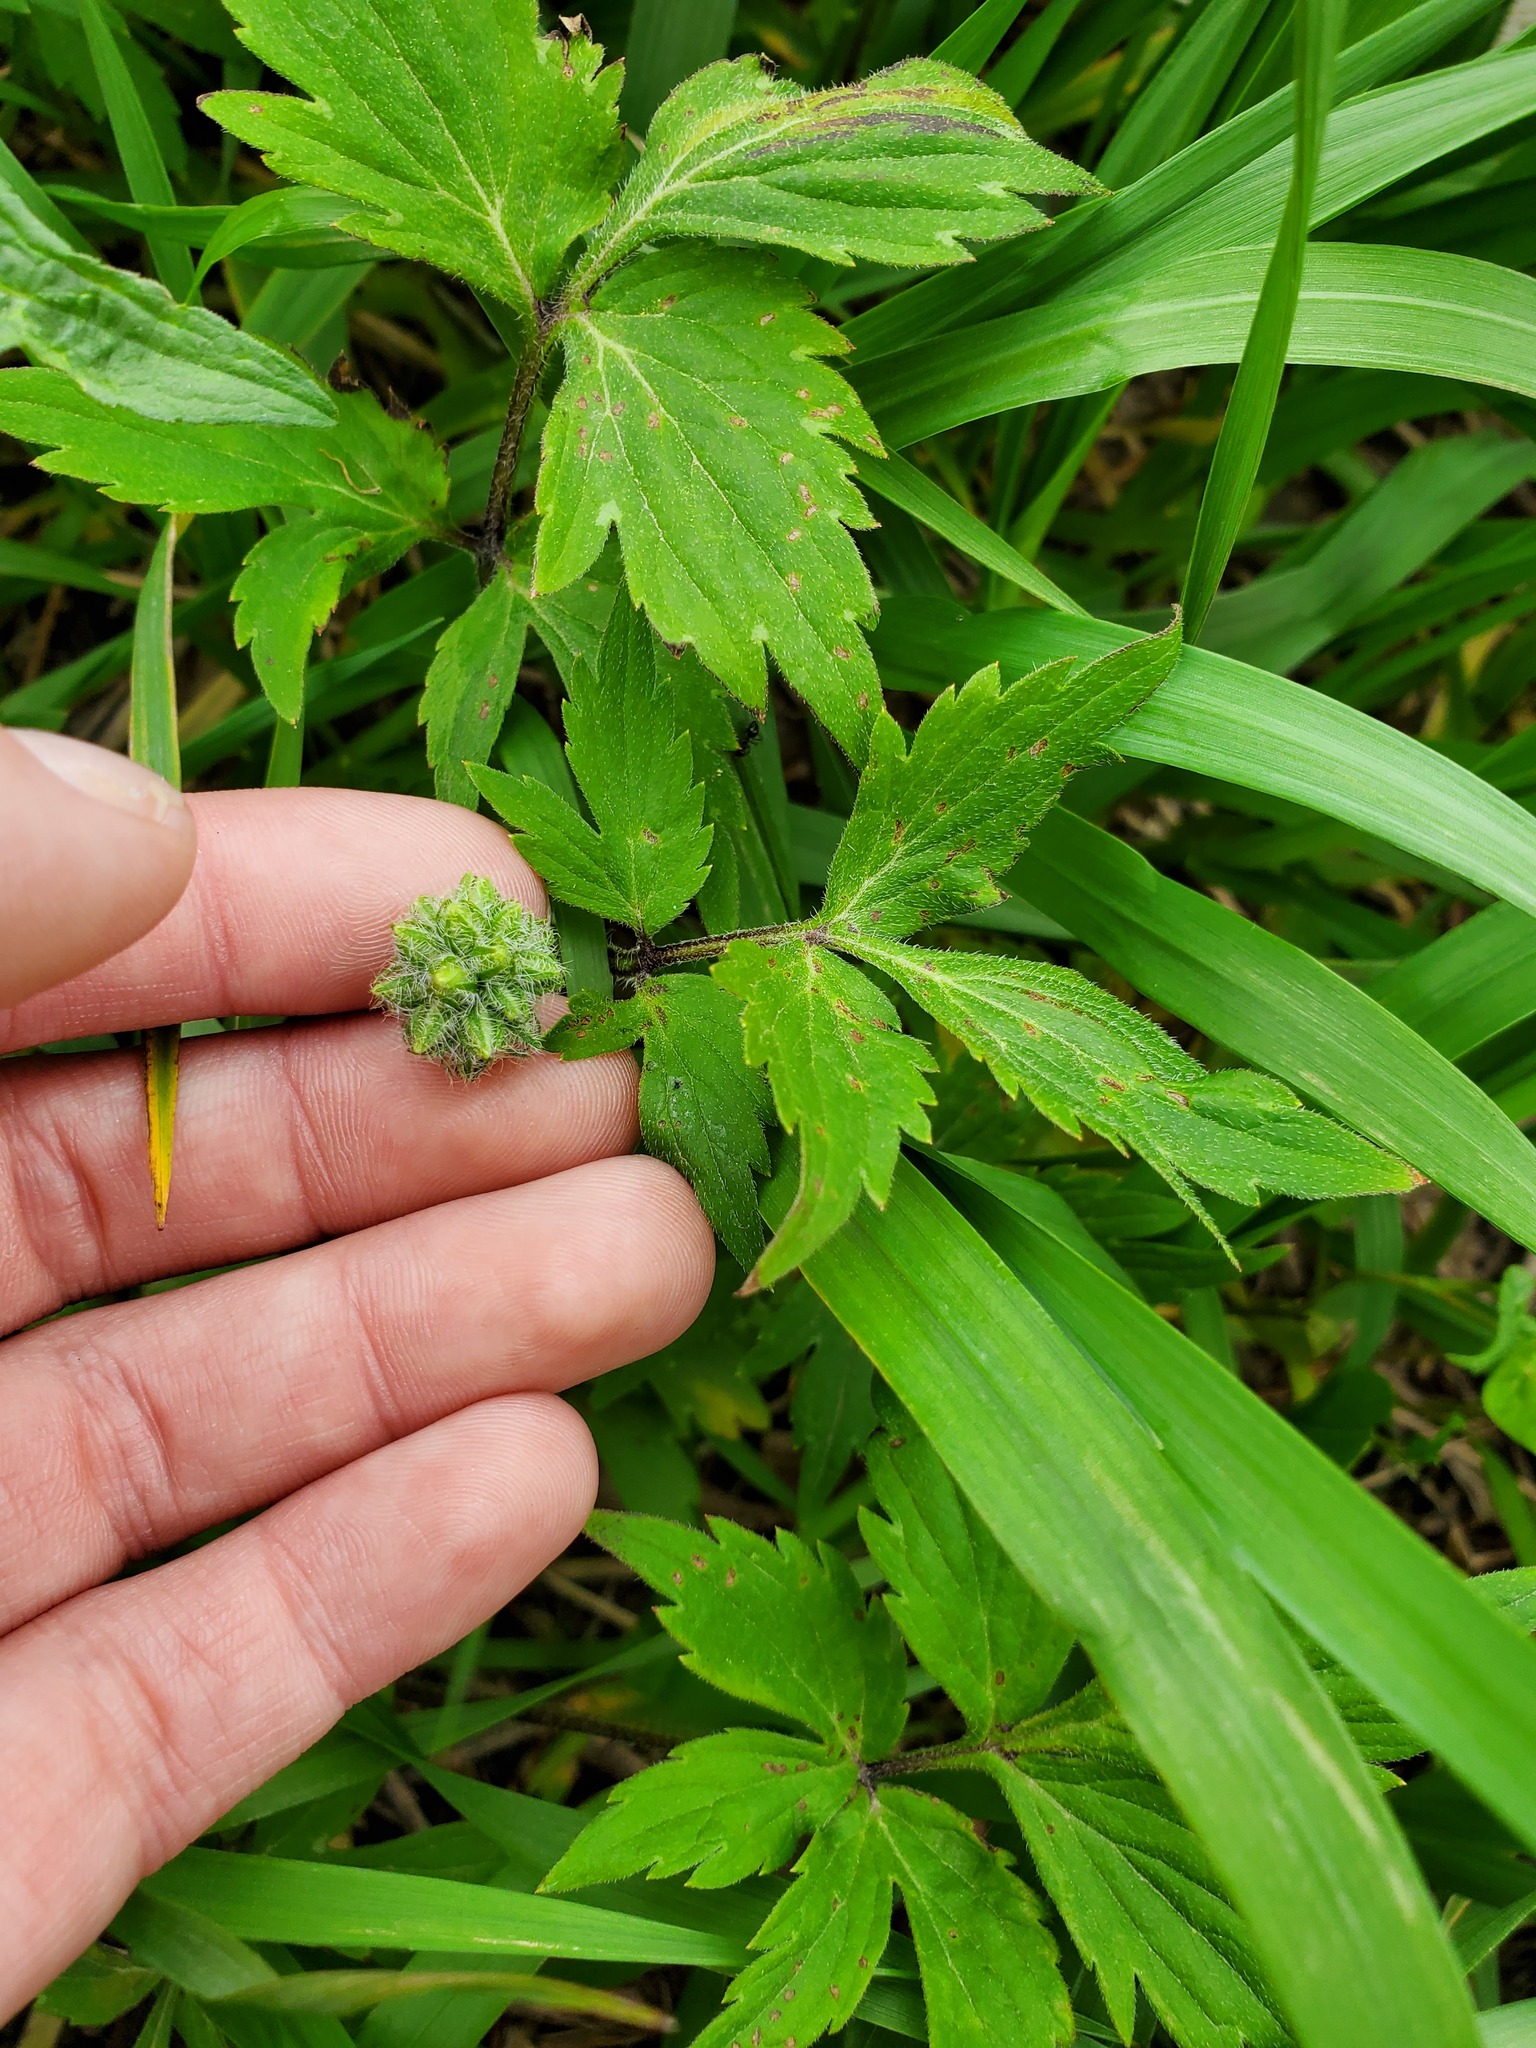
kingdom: Plantae
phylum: Tracheophyta
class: Magnoliopsida
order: Boraginales
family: Hydrophyllaceae
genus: Hydrophyllum
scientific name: Hydrophyllum virginianum
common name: Virginia waterleaf
